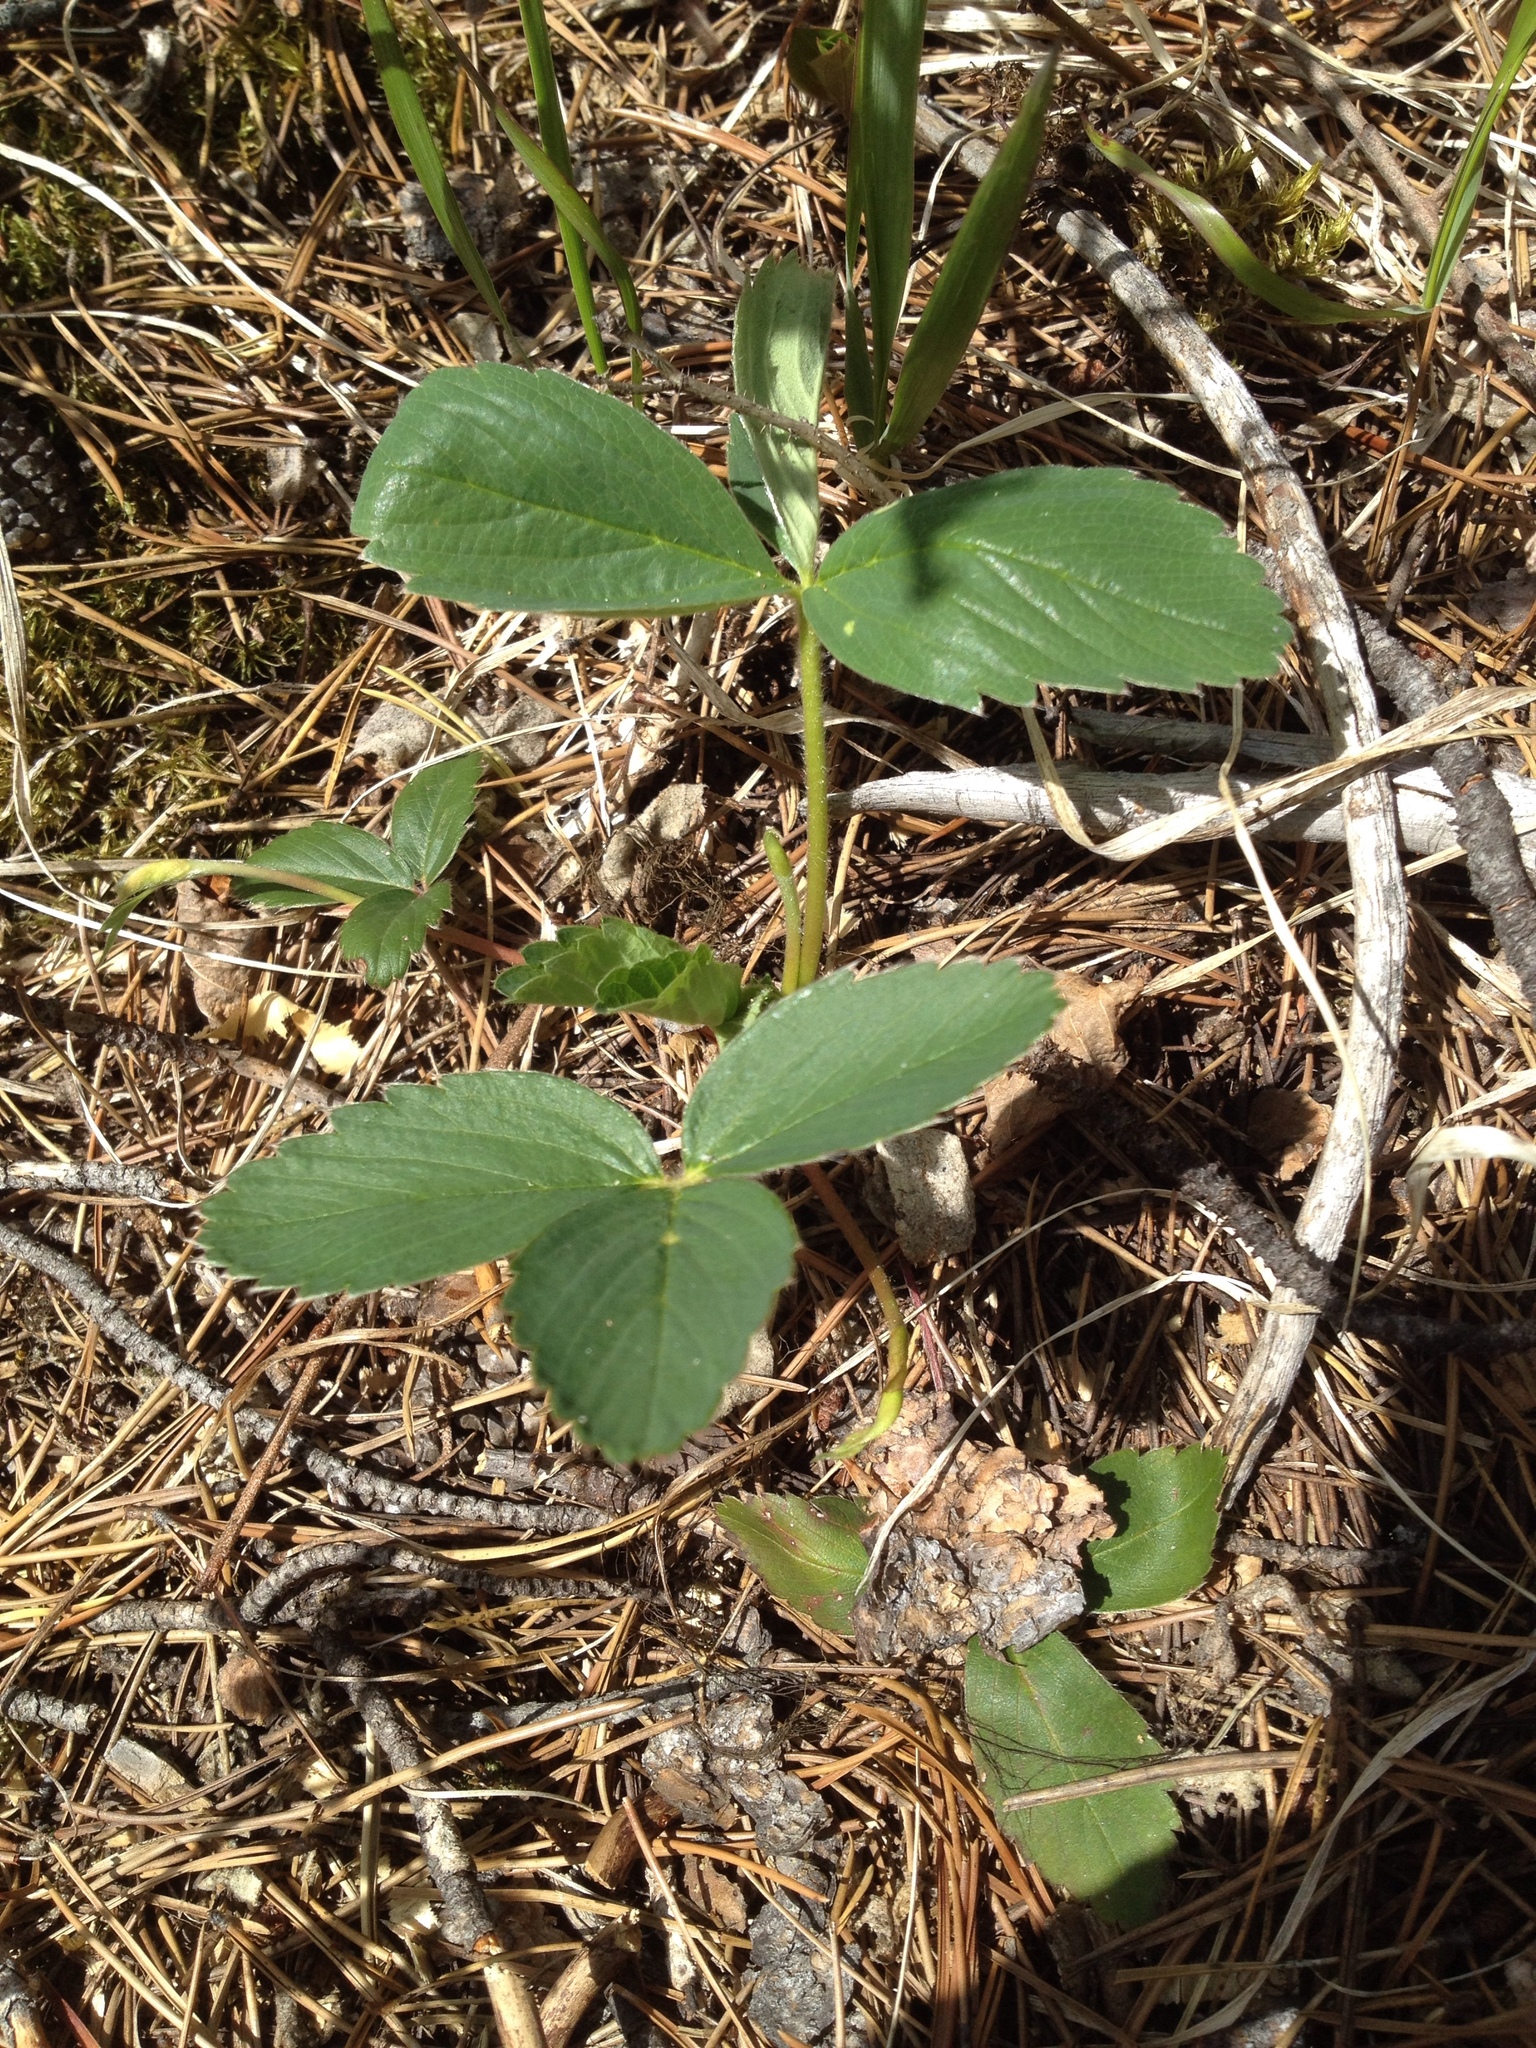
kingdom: Plantae
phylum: Tracheophyta
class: Magnoliopsida
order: Rosales
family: Rosaceae
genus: Fragaria
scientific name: Fragaria virginiana
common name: Thickleaved wild strawberry
